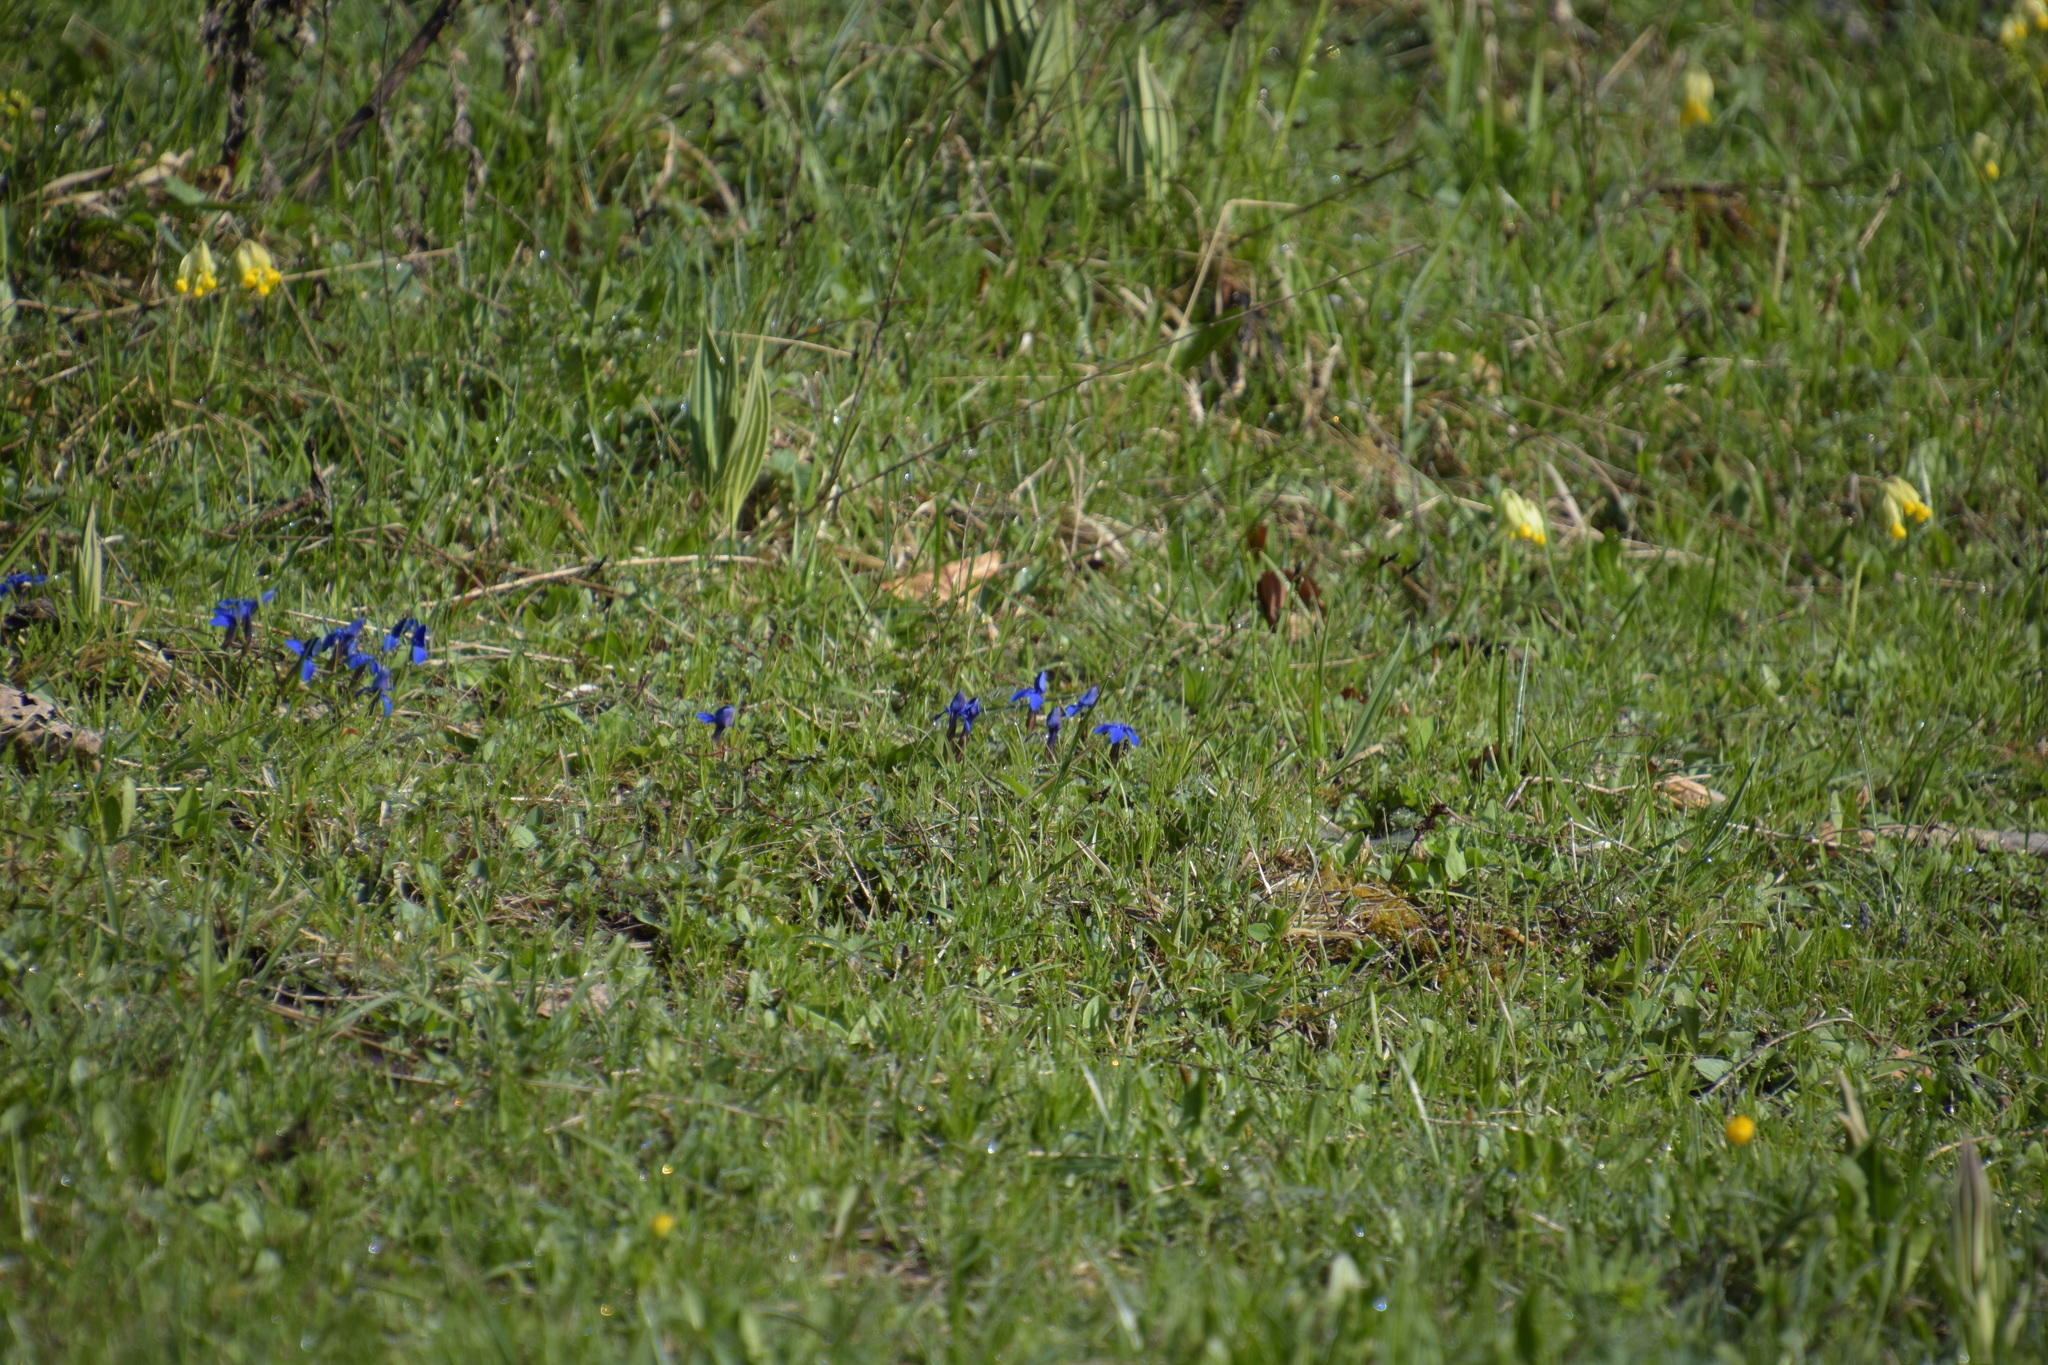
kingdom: Plantae
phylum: Tracheophyta
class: Magnoliopsida
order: Gentianales
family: Gentianaceae
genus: Gentiana
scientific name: Gentiana verna
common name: Spring gentian
